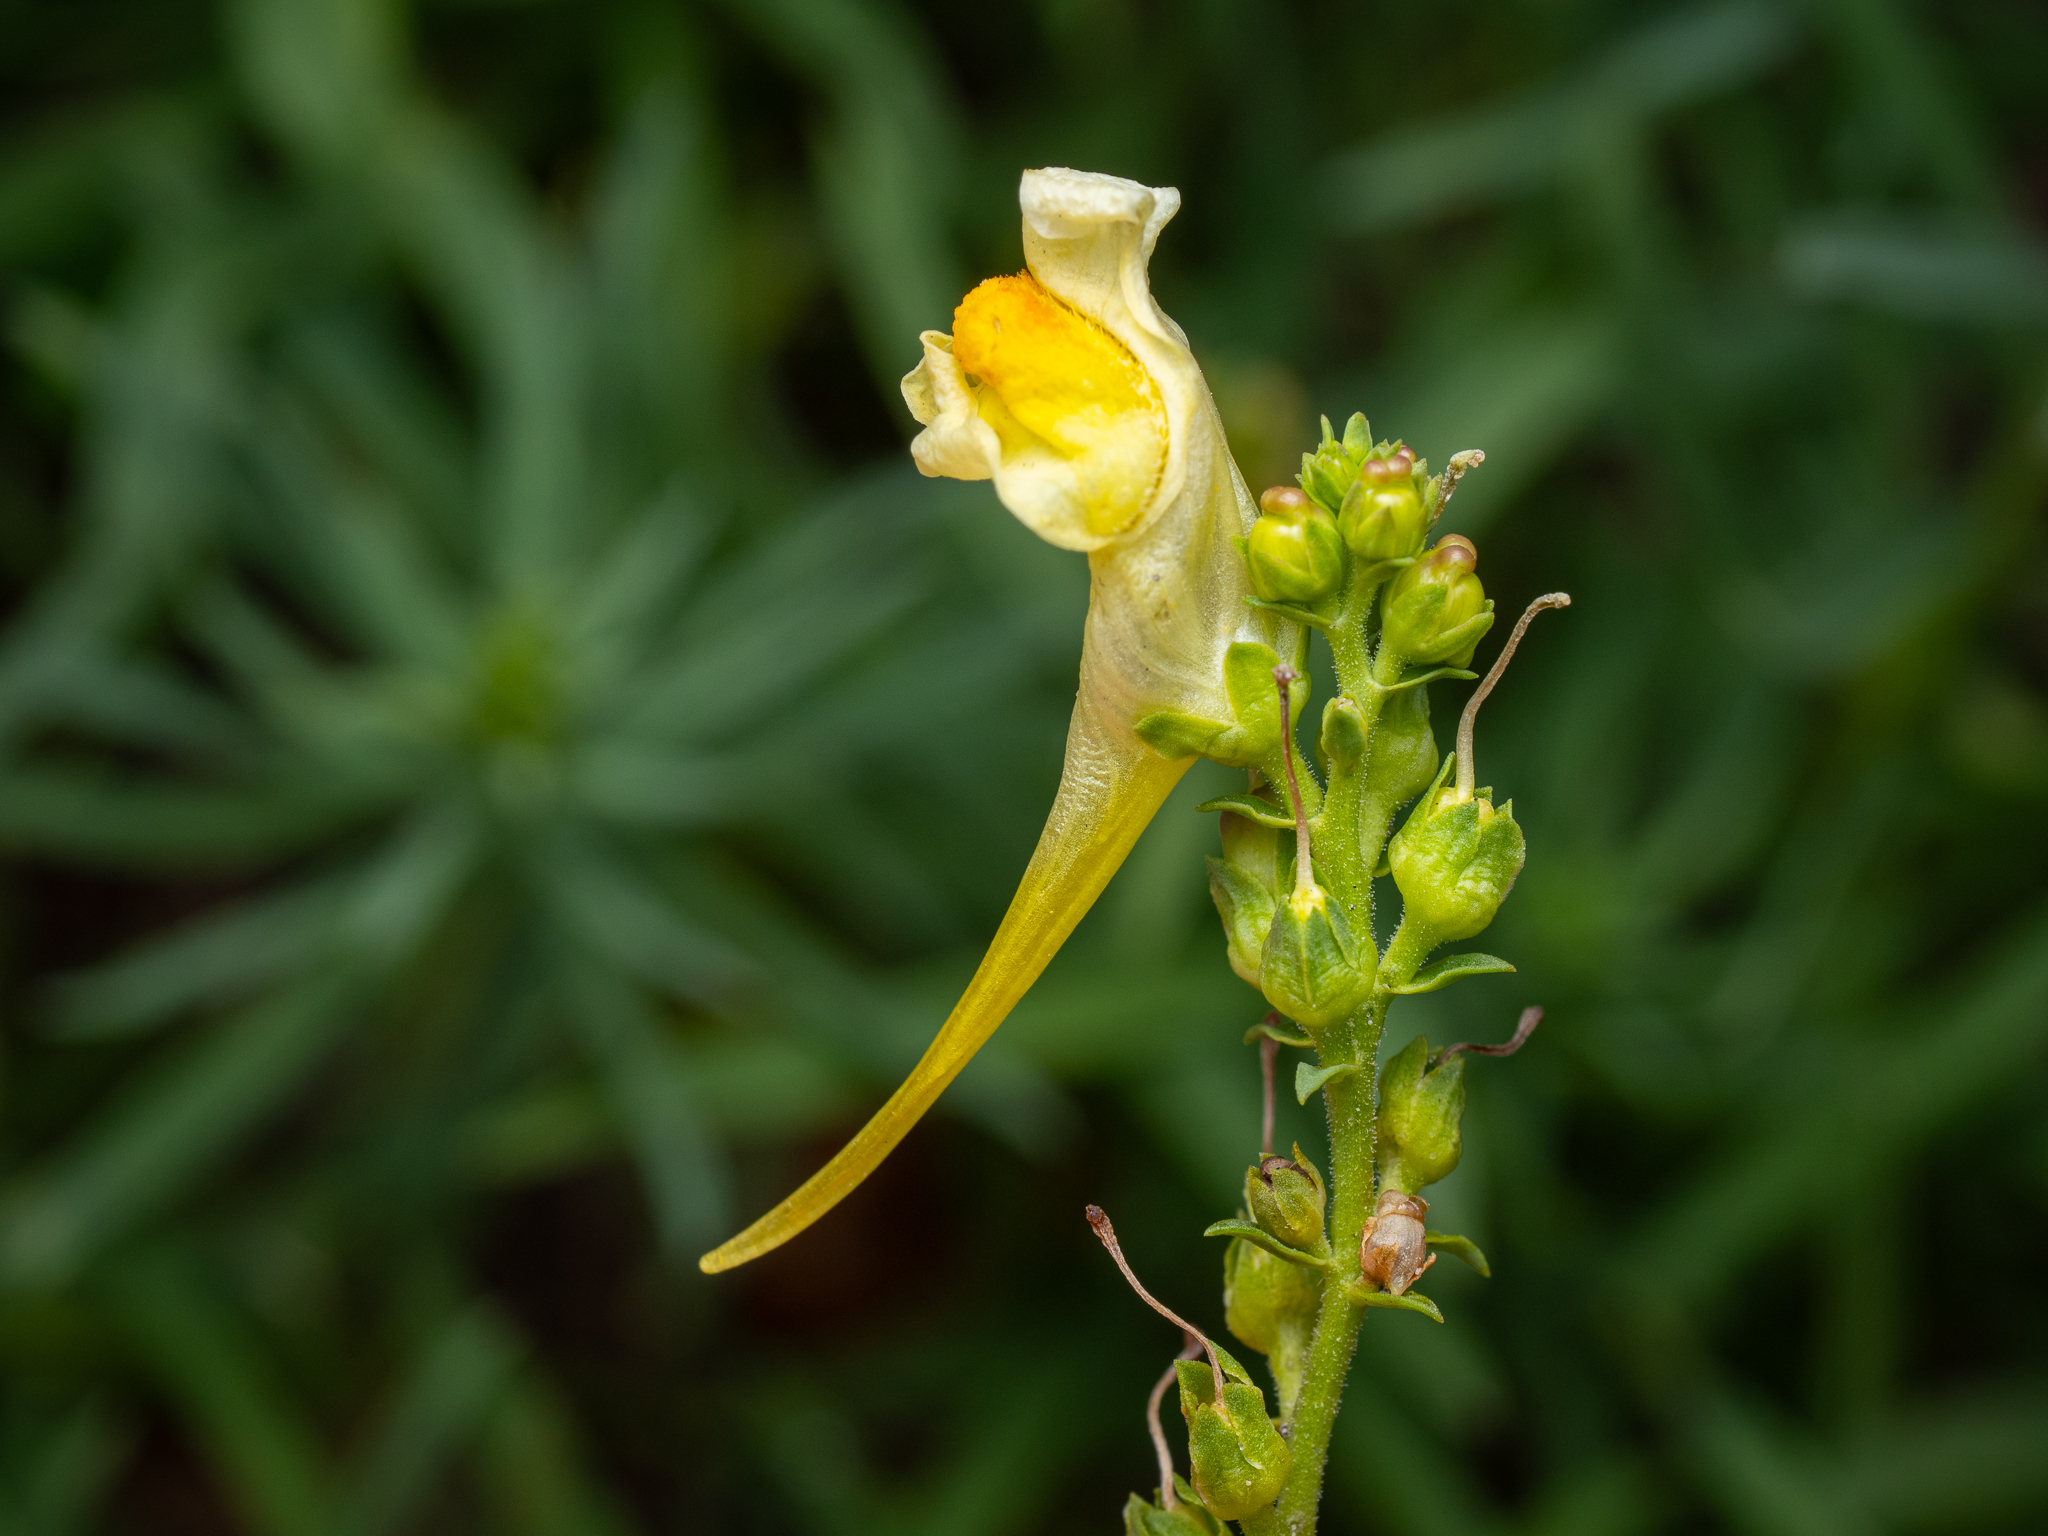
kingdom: Plantae
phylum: Tracheophyta
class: Magnoliopsida
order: Lamiales
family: Plantaginaceae
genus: Linaria
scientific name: Linaria vulgaris
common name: Butter and eggs
